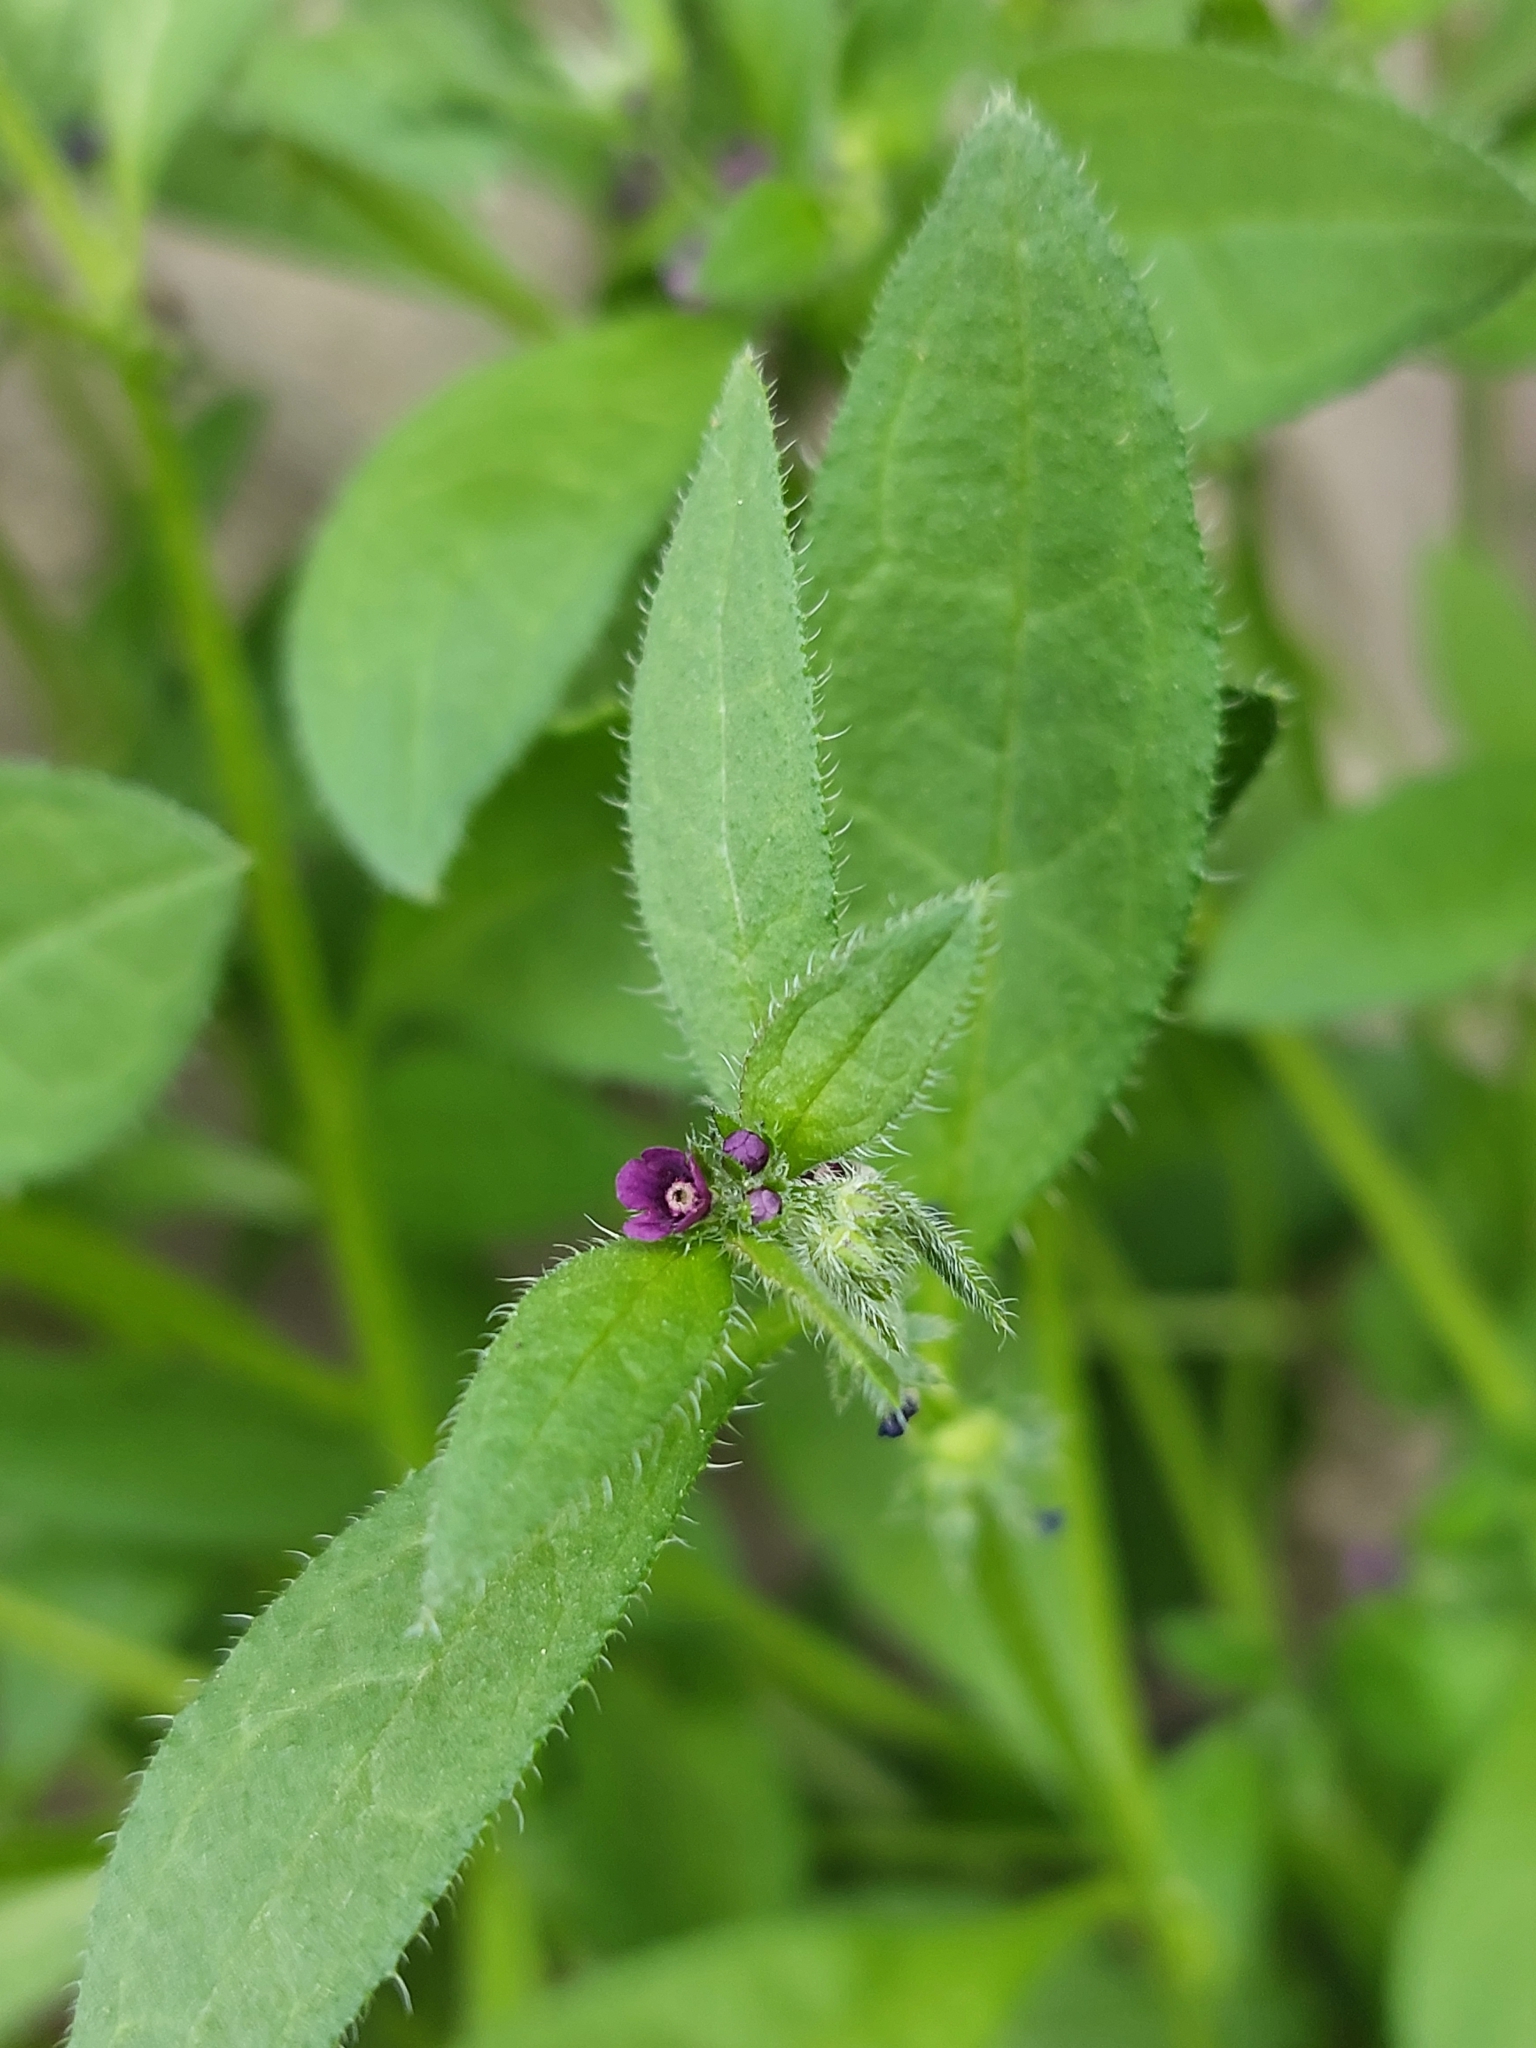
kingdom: Plantae
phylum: Tracheophyta
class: Magnoliopsida
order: Boraginales
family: Boraginaceae
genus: Asperugo
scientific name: Asperugo procumbens
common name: Madwort
